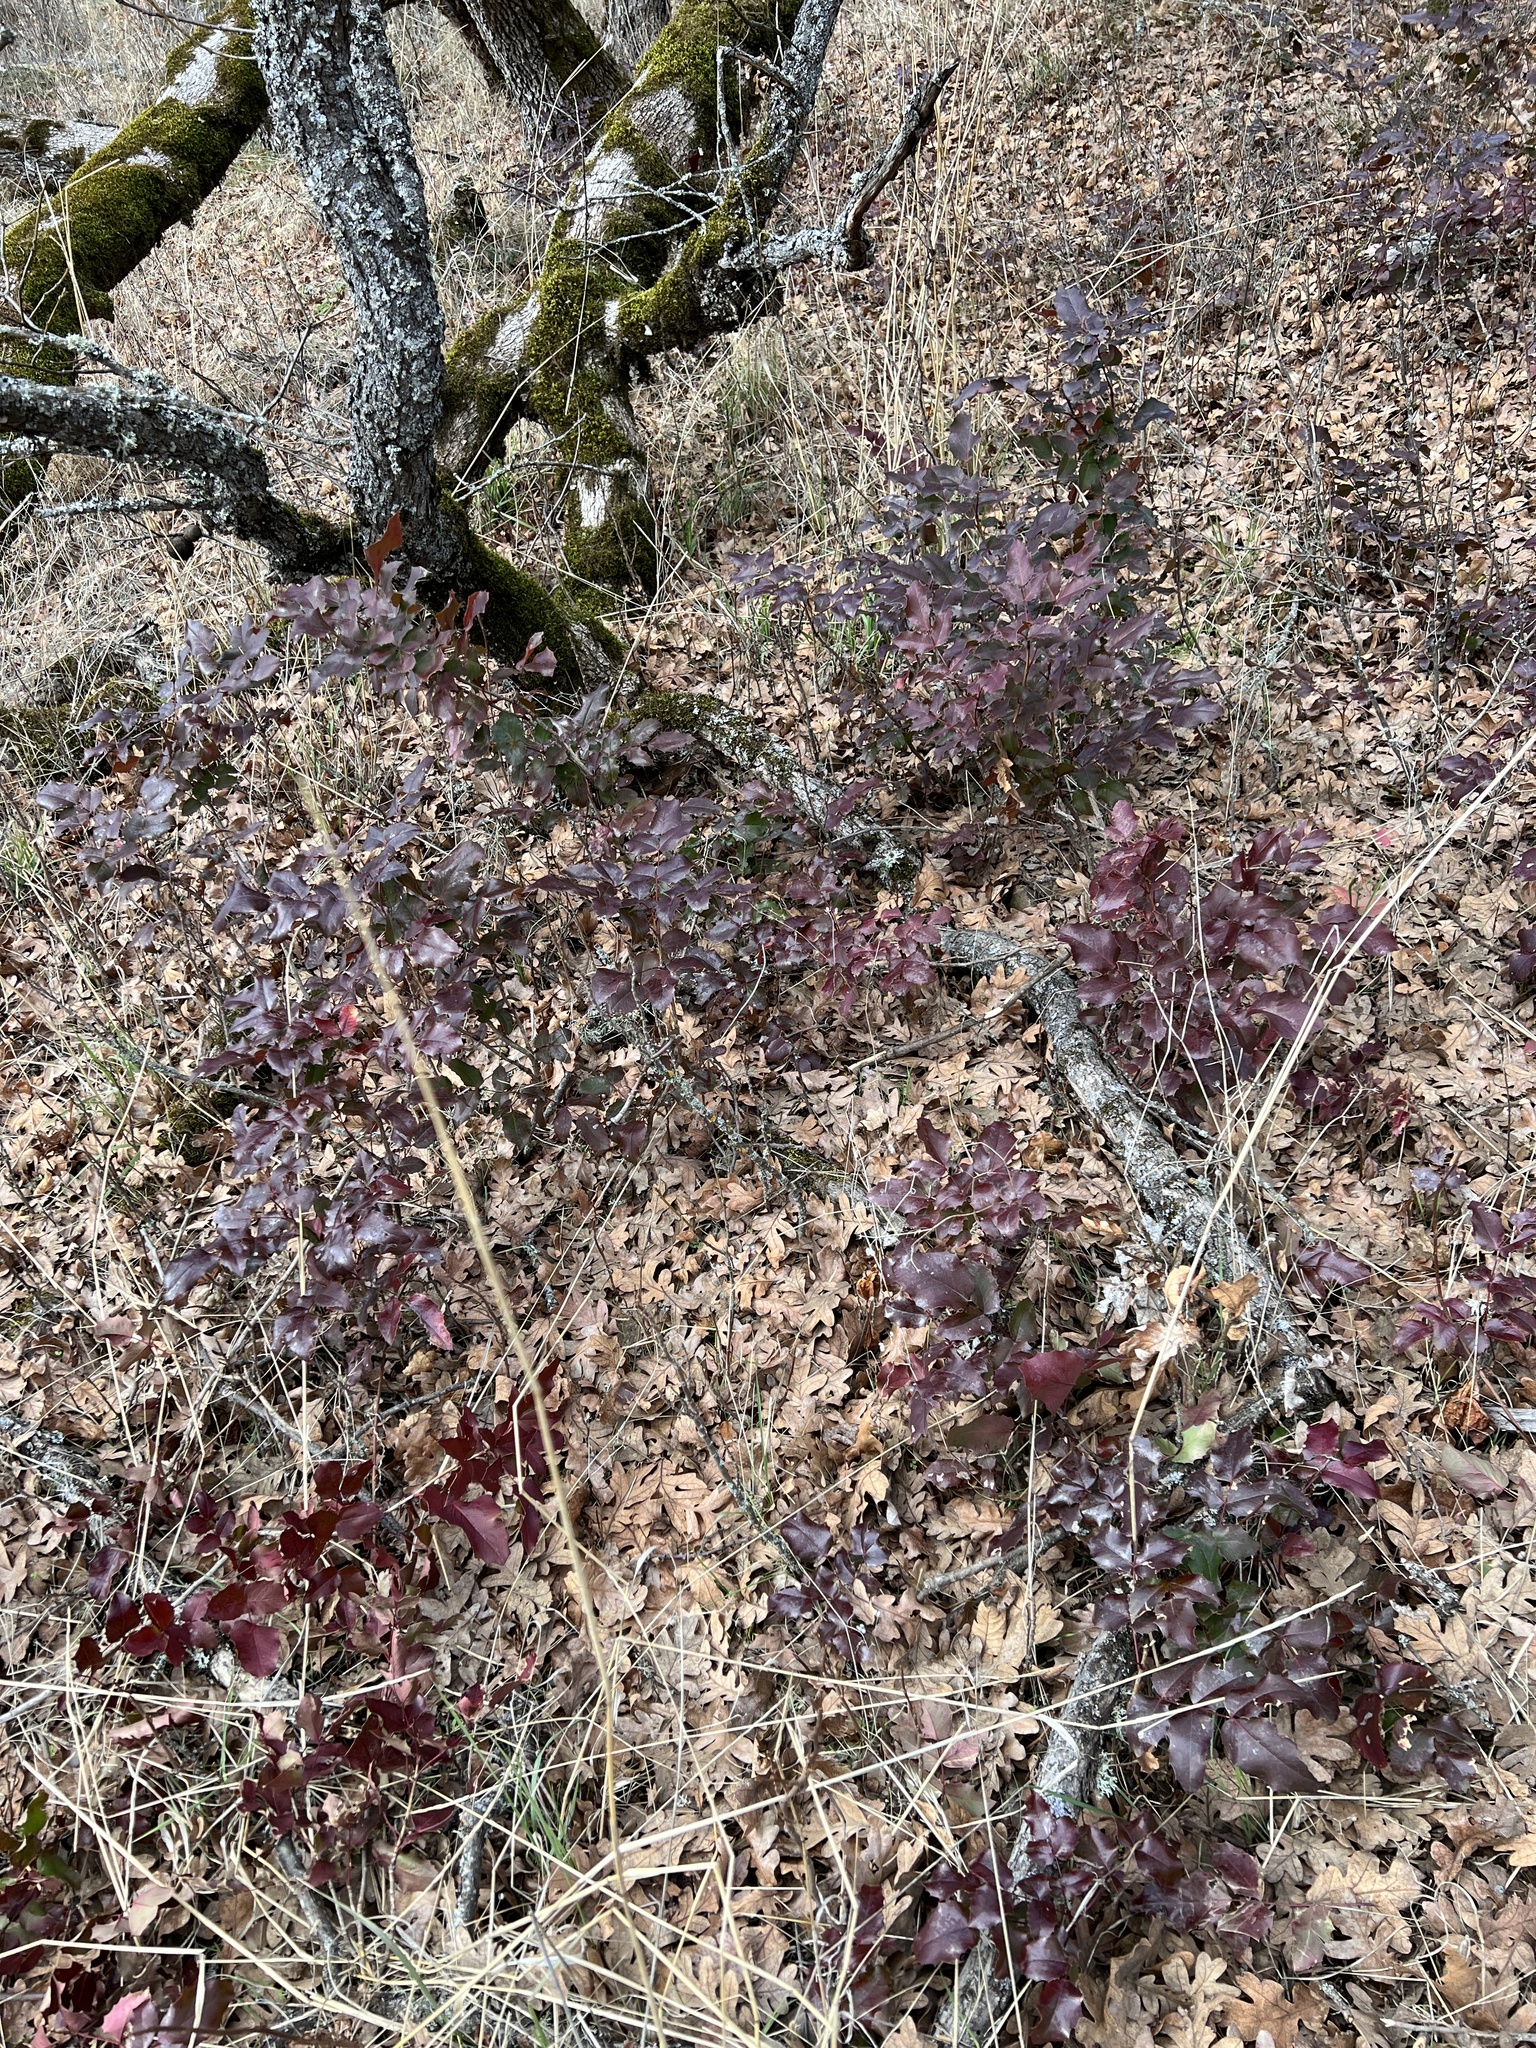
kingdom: Plantae
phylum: Tracheophyta
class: Magnoliopsida
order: Ranunculales
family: Berberidaceae
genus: Mahonia
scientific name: Mahonia aquifolium
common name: Oregon-grape
